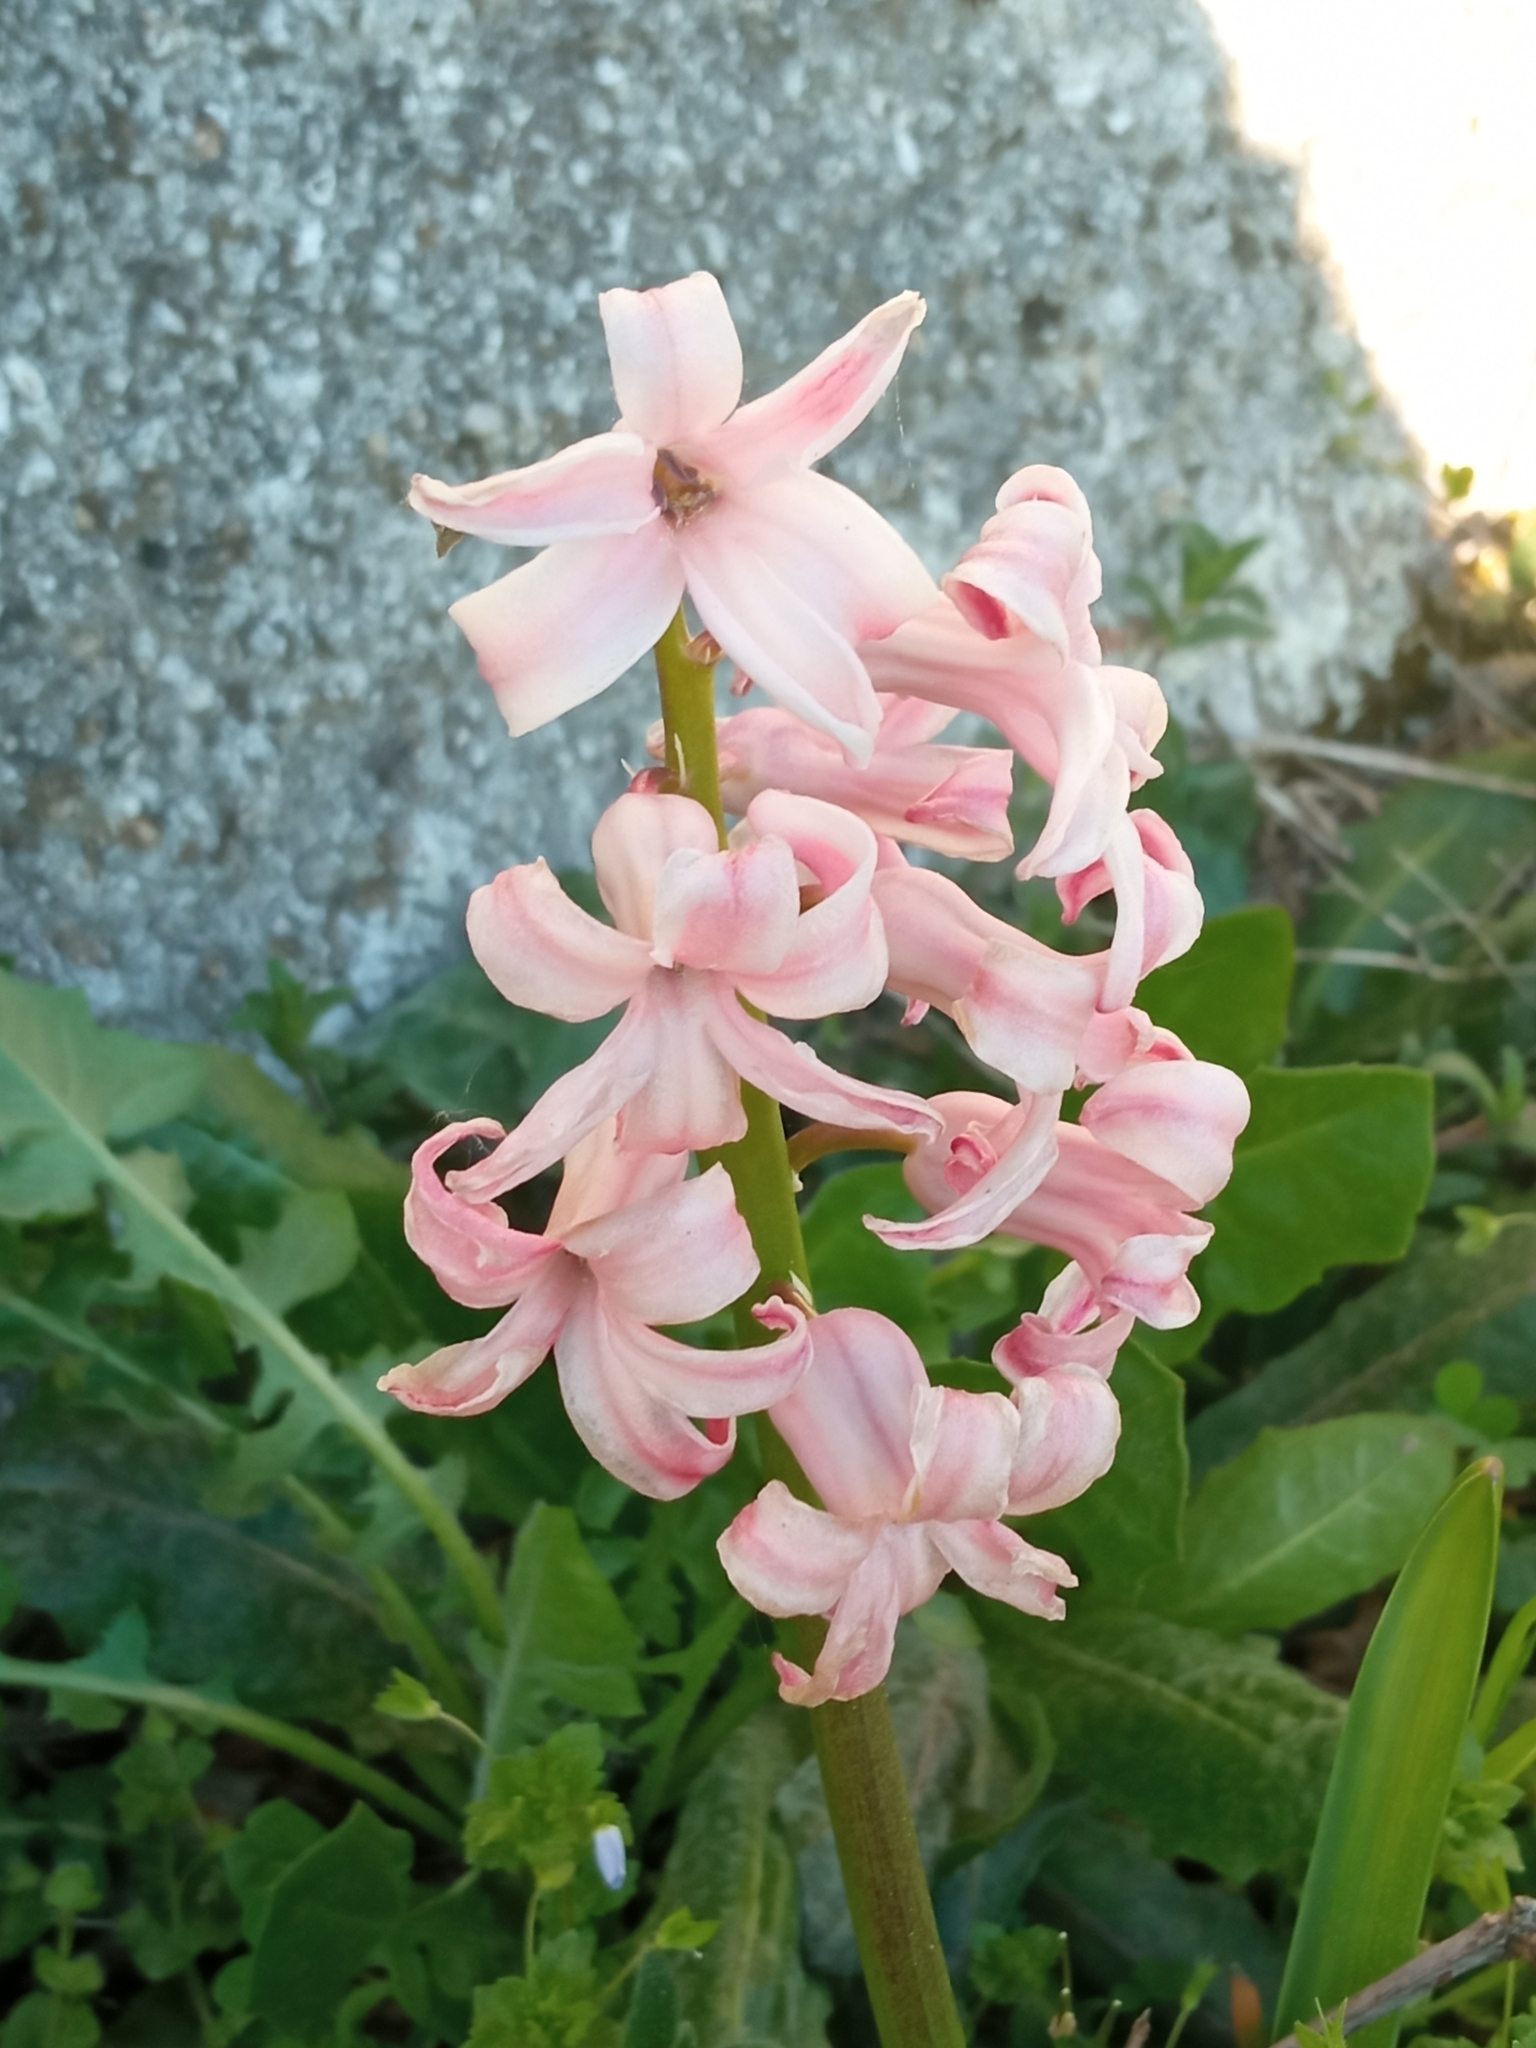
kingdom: Plantae
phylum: Tracheophyta
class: Liliopsida
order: Asparagales
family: Asparagaceae
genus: Hyacinthus
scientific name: Hyacinthus orientalis
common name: Hyacinth
